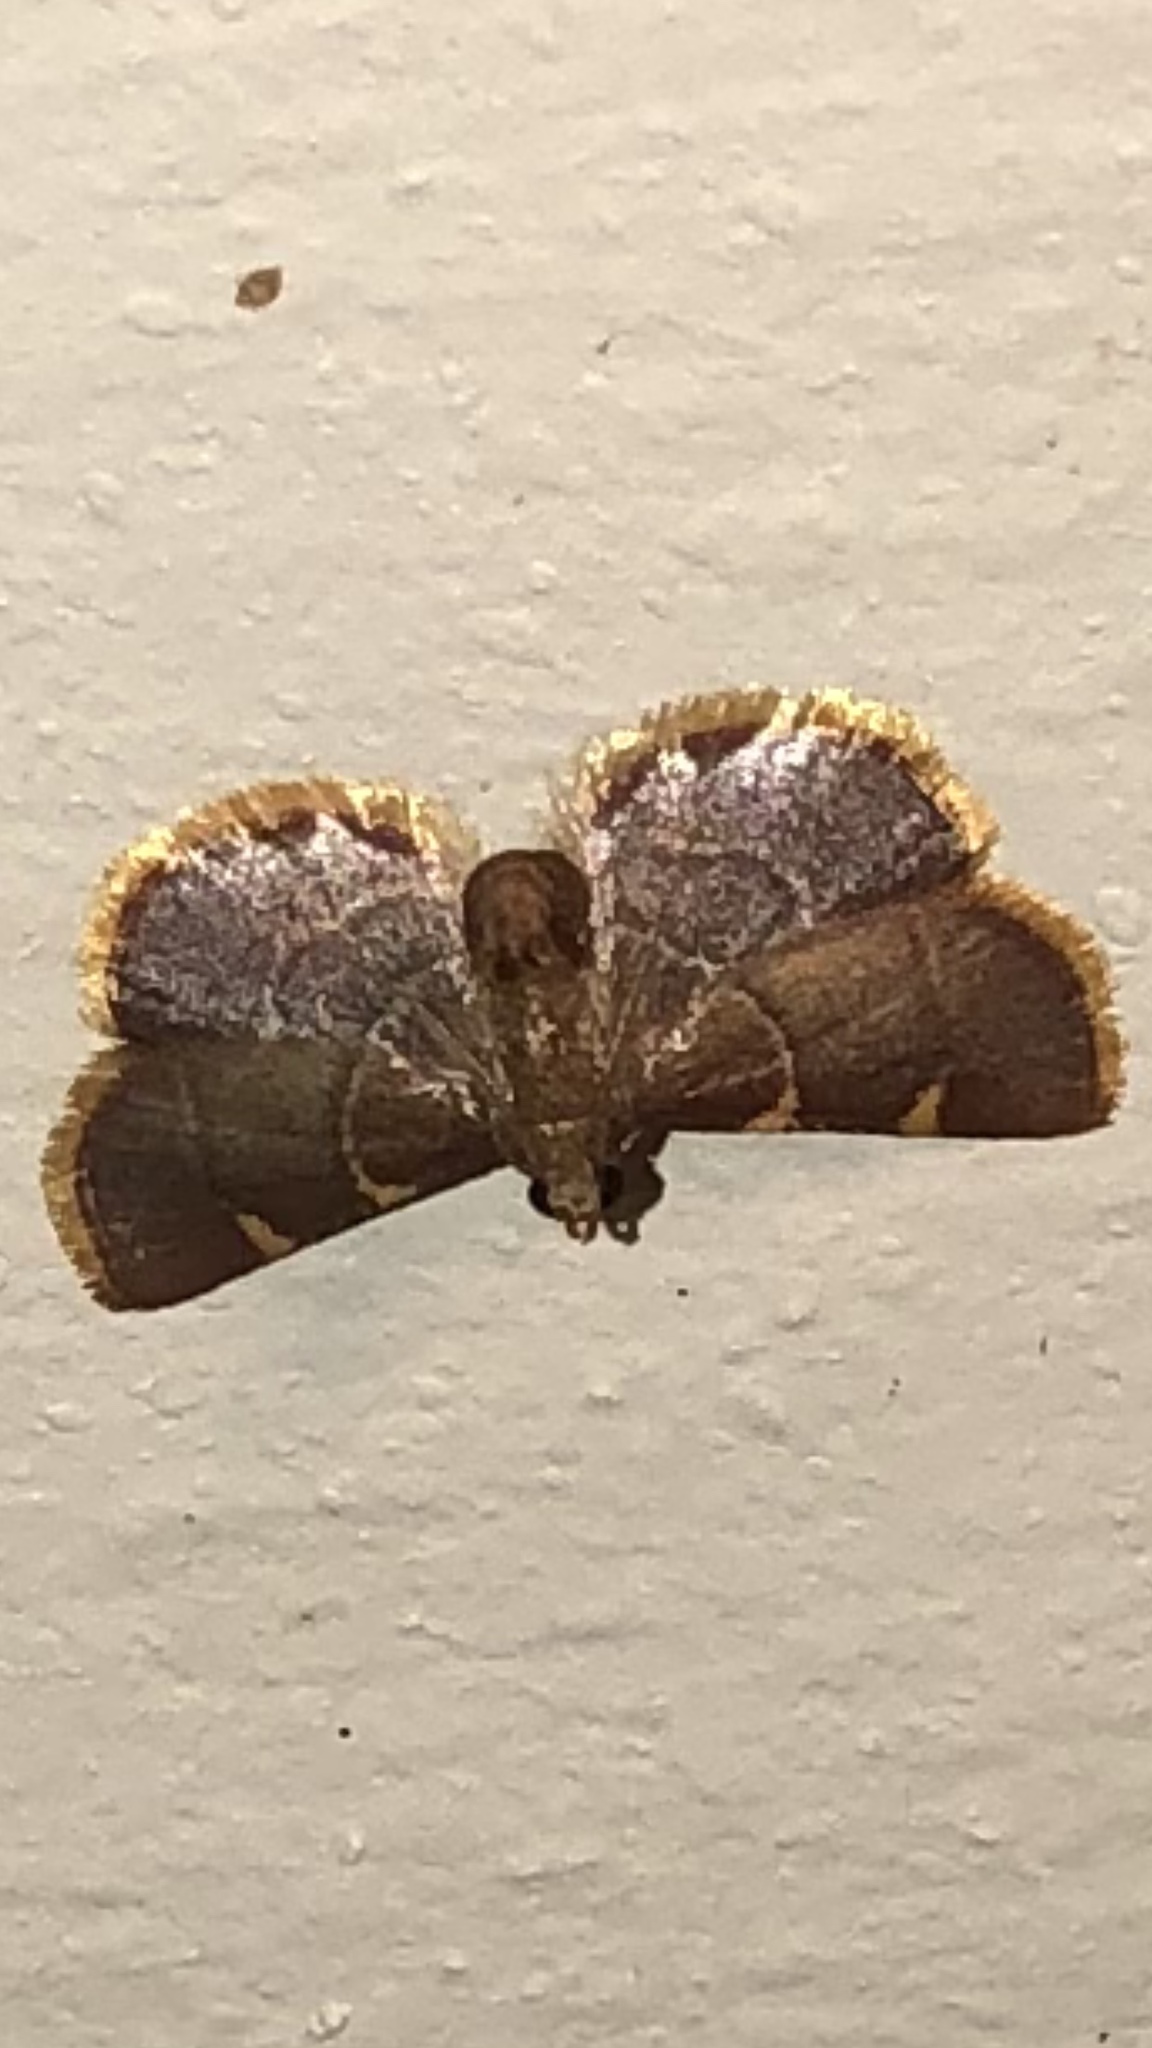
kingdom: Animalia
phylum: Arthropoda
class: Insecta
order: Lepidoptera
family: Pyralidae
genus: Hypsopygia
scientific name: Hypsopygia olinalis
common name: Yellow-fringed dolichomia moth
